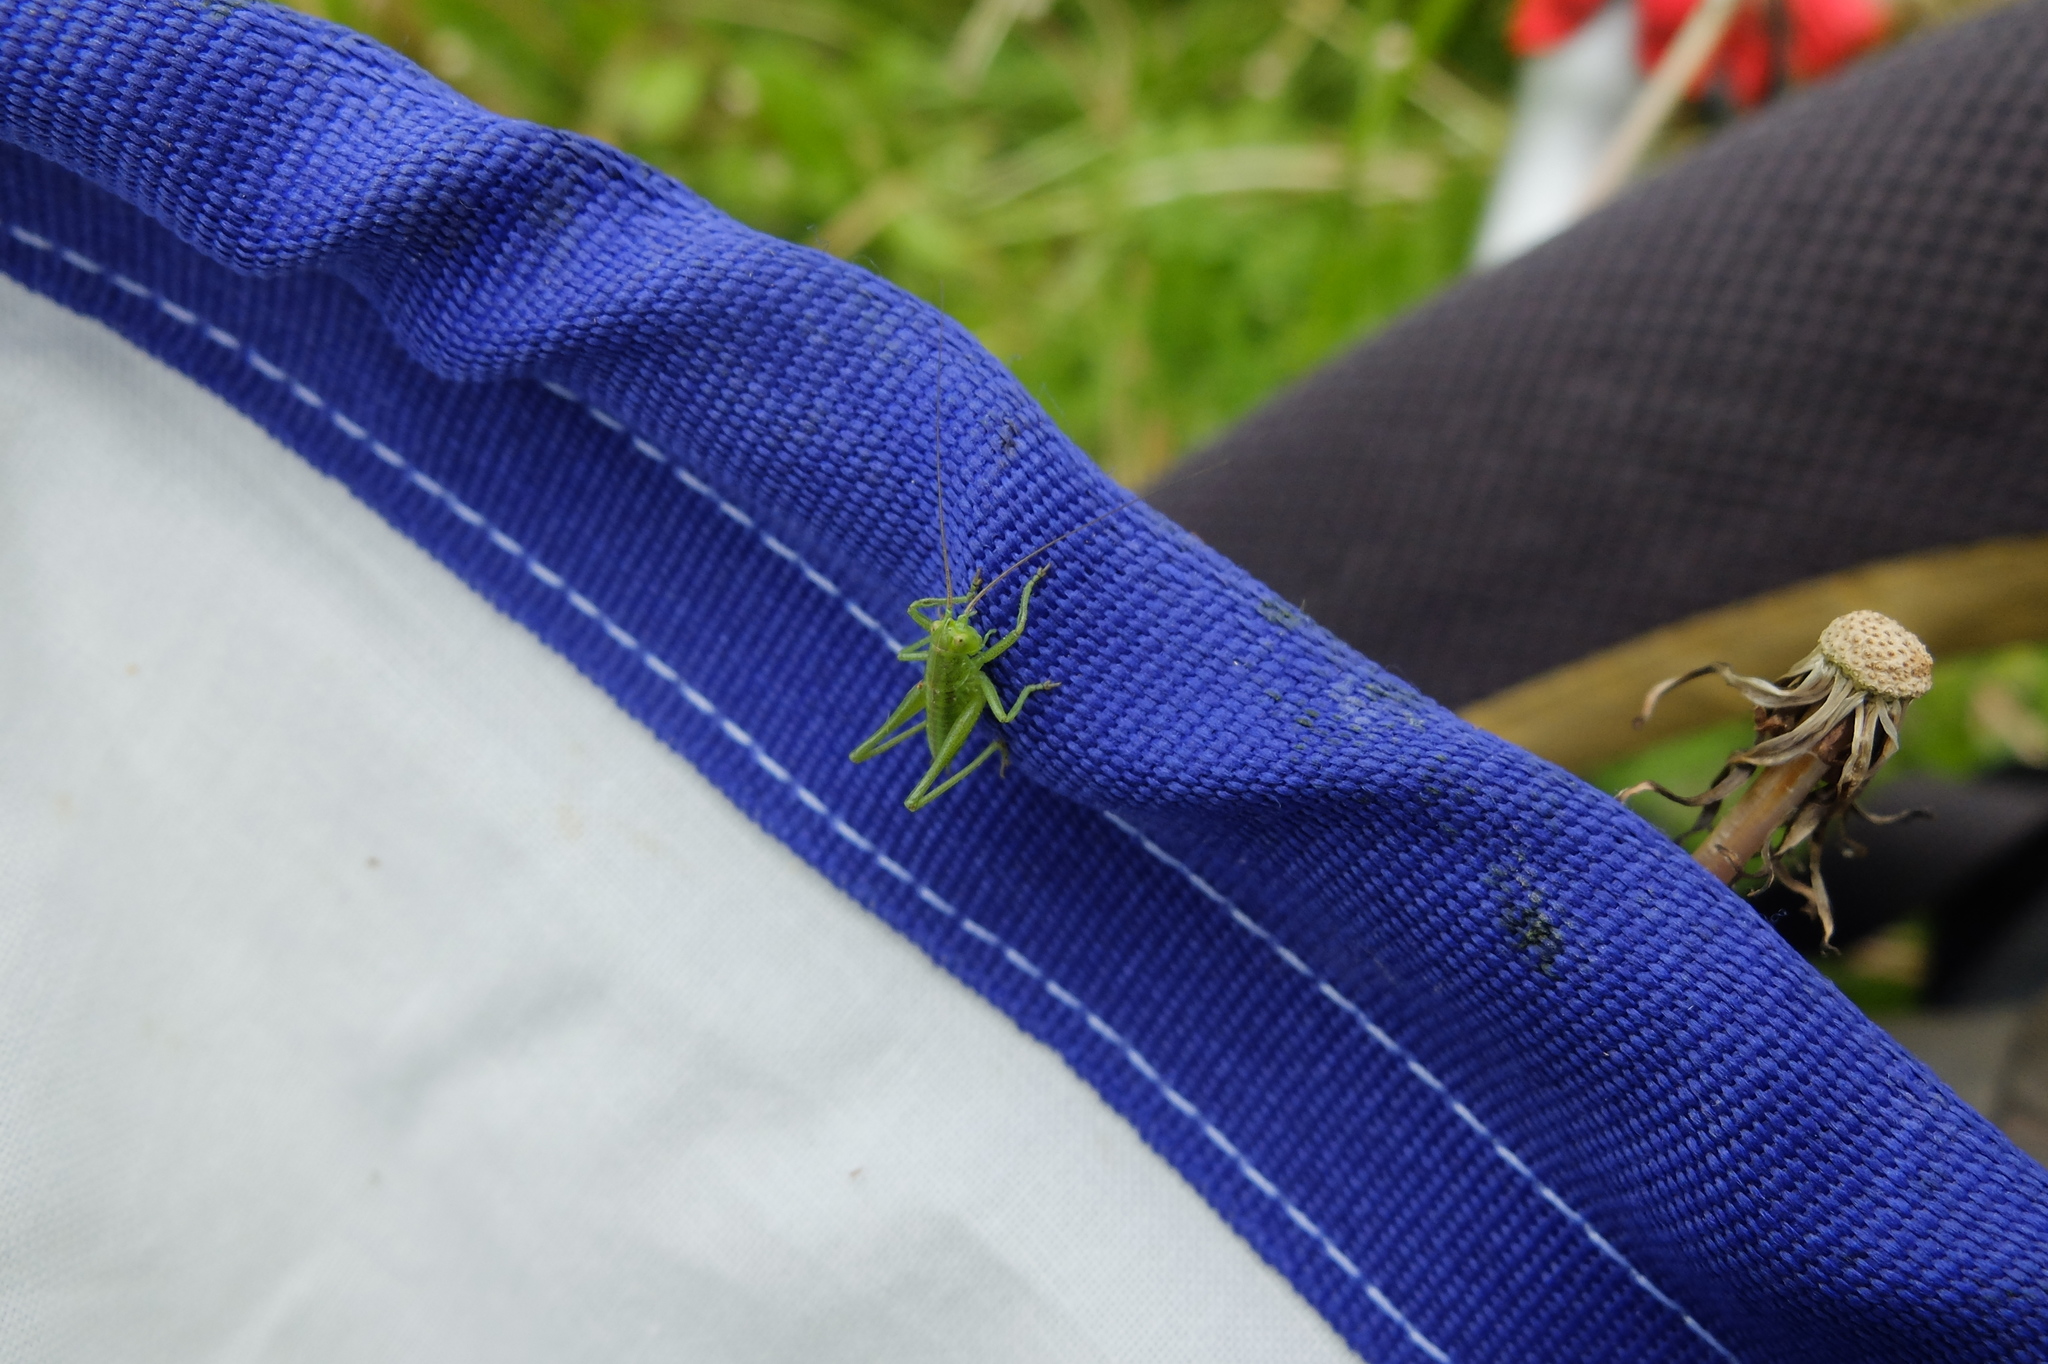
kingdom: Animalia
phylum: Arthropoda
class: Insecta
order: Orthoptera
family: Tettigoniidae
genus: Tettigonia
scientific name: Tettigonia viridissima
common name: Great green bush-cricket
